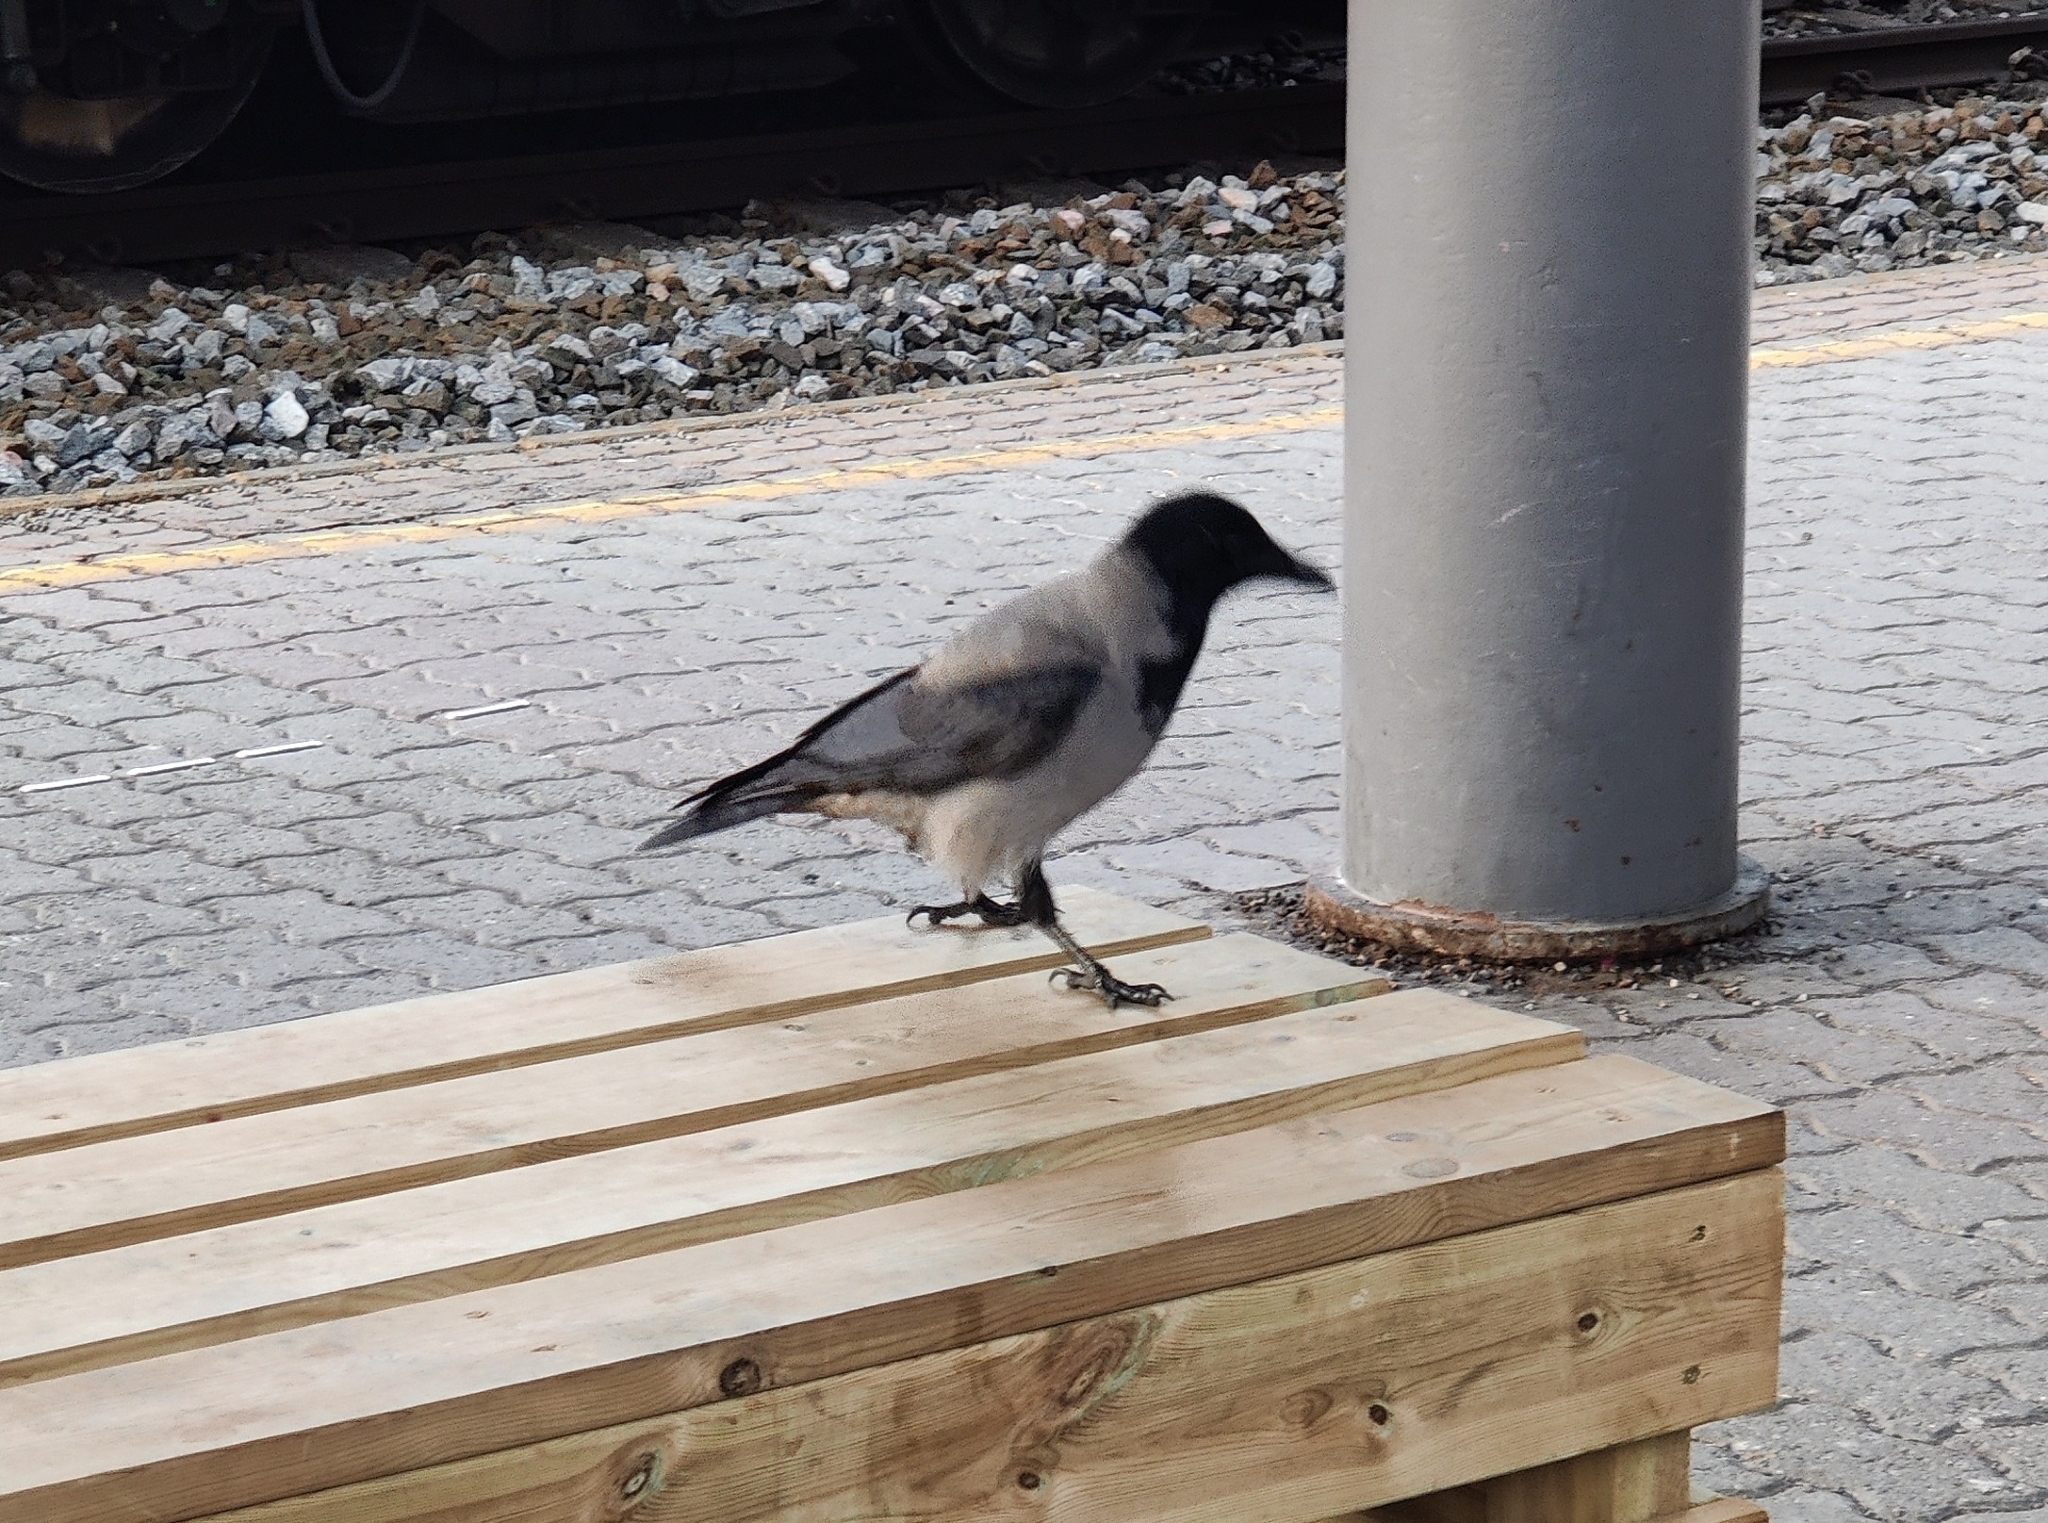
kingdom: Animalia
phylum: Chordata
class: Aves
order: Passeriformes
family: Corvidae
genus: Corvus
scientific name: Corvus cornix
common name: Hooded crow
